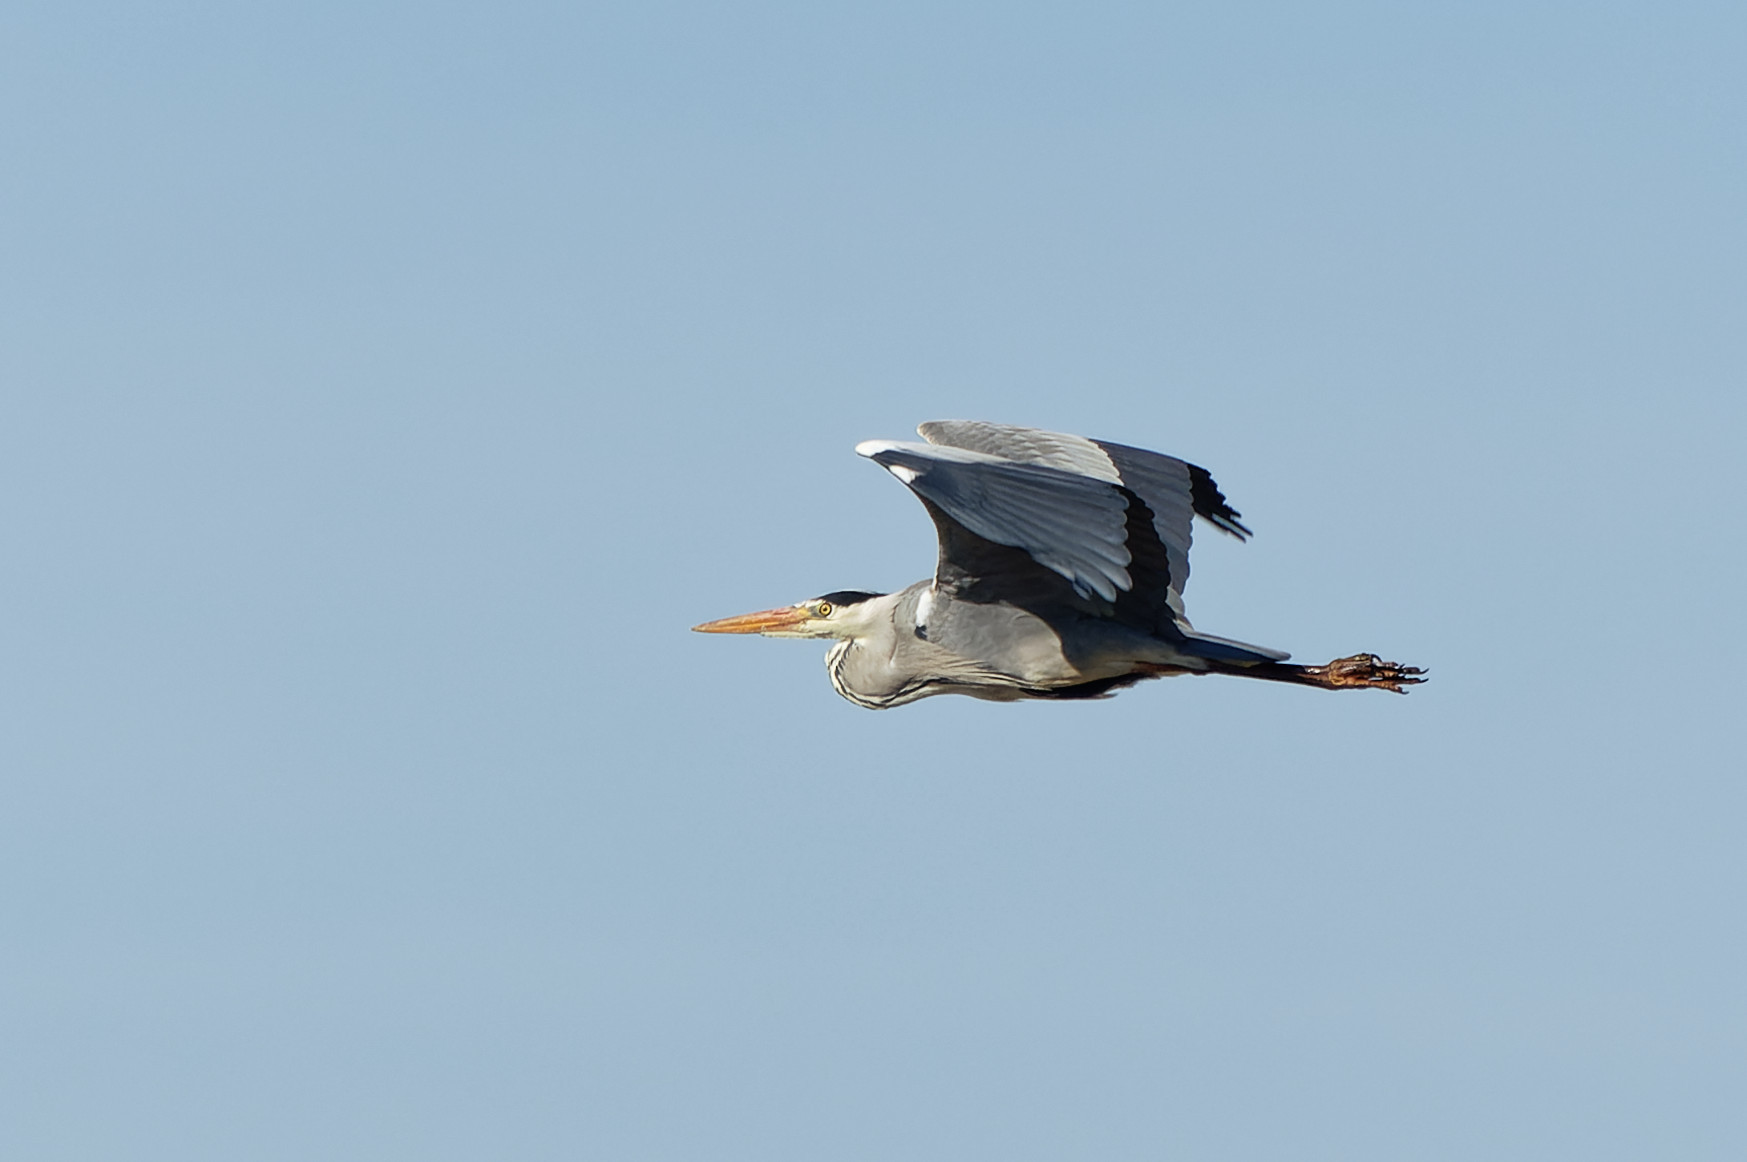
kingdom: Animalia
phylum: Chordata
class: Aves
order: Pelecaniformes
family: Ardeidae
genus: Ardea
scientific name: Ardea cinerea
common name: Grey heron
